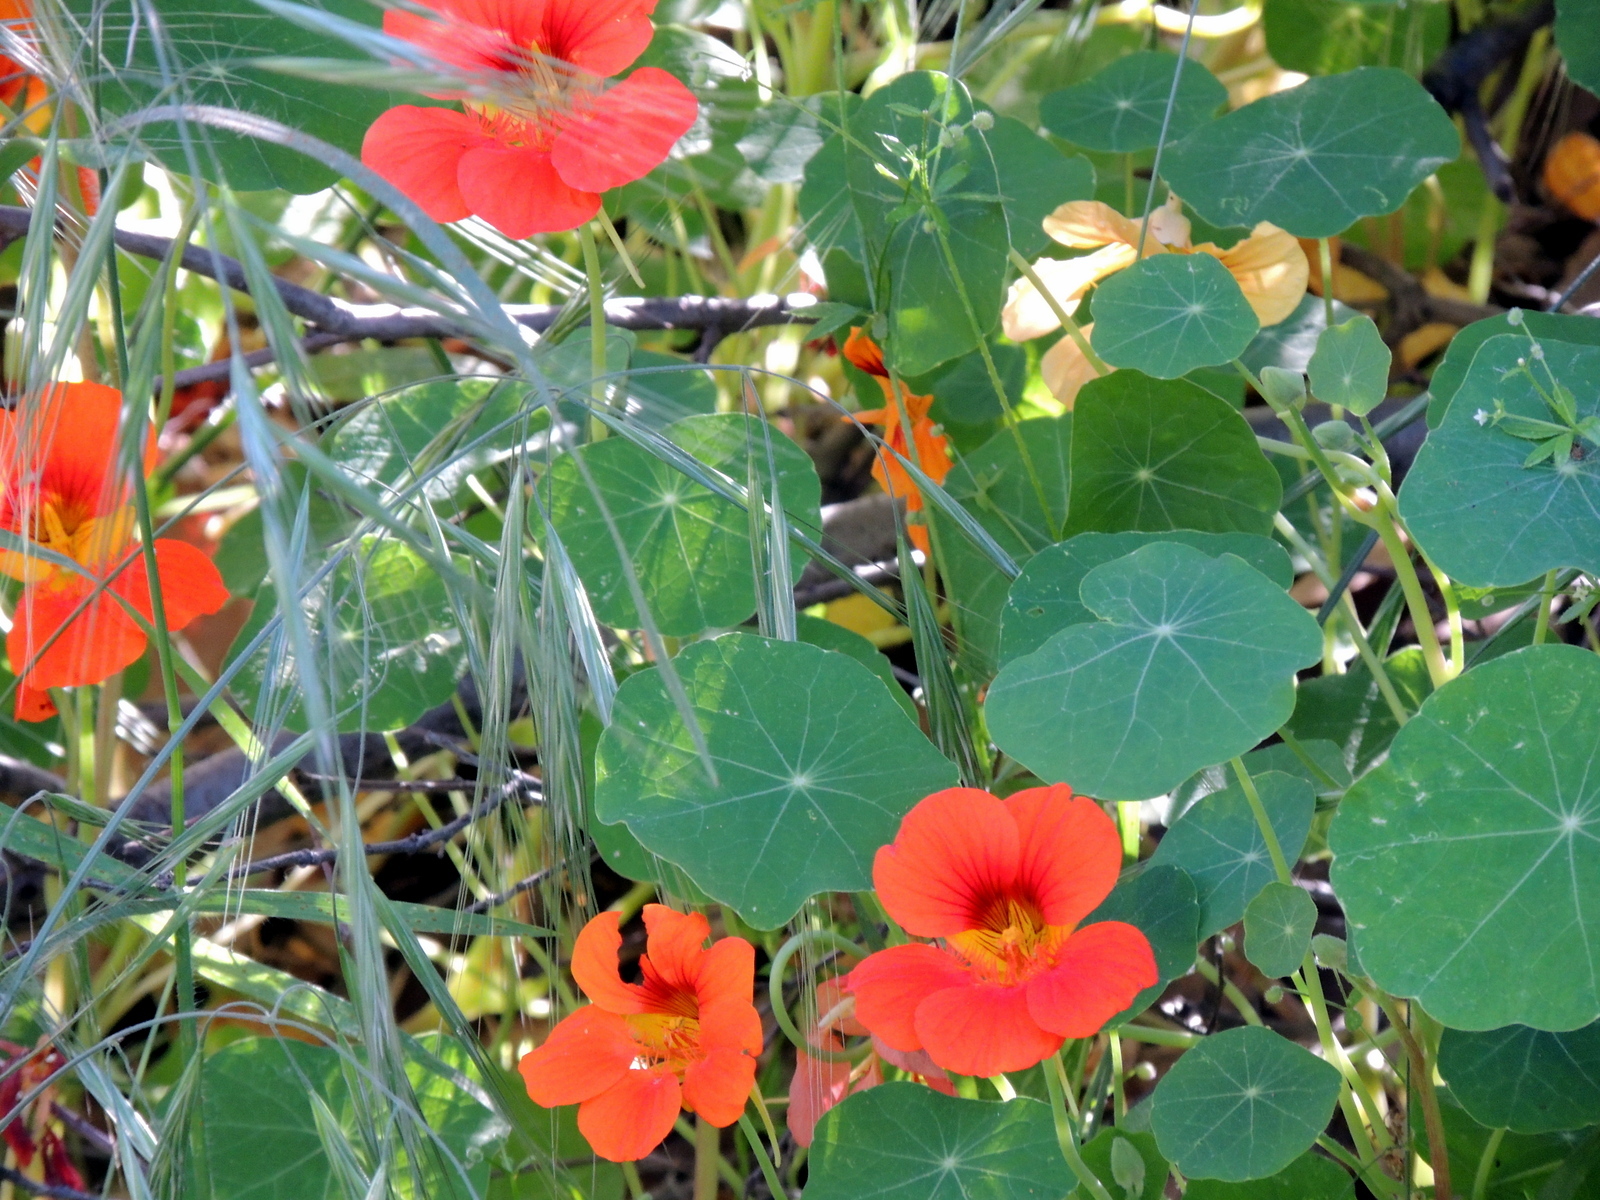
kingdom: Plantae
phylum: Tracheophyta
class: Magnoliopsida
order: Brassicales
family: Tropaeolaceae
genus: Tropaeolum
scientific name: Tropaeolum majus
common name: Nasturtium
